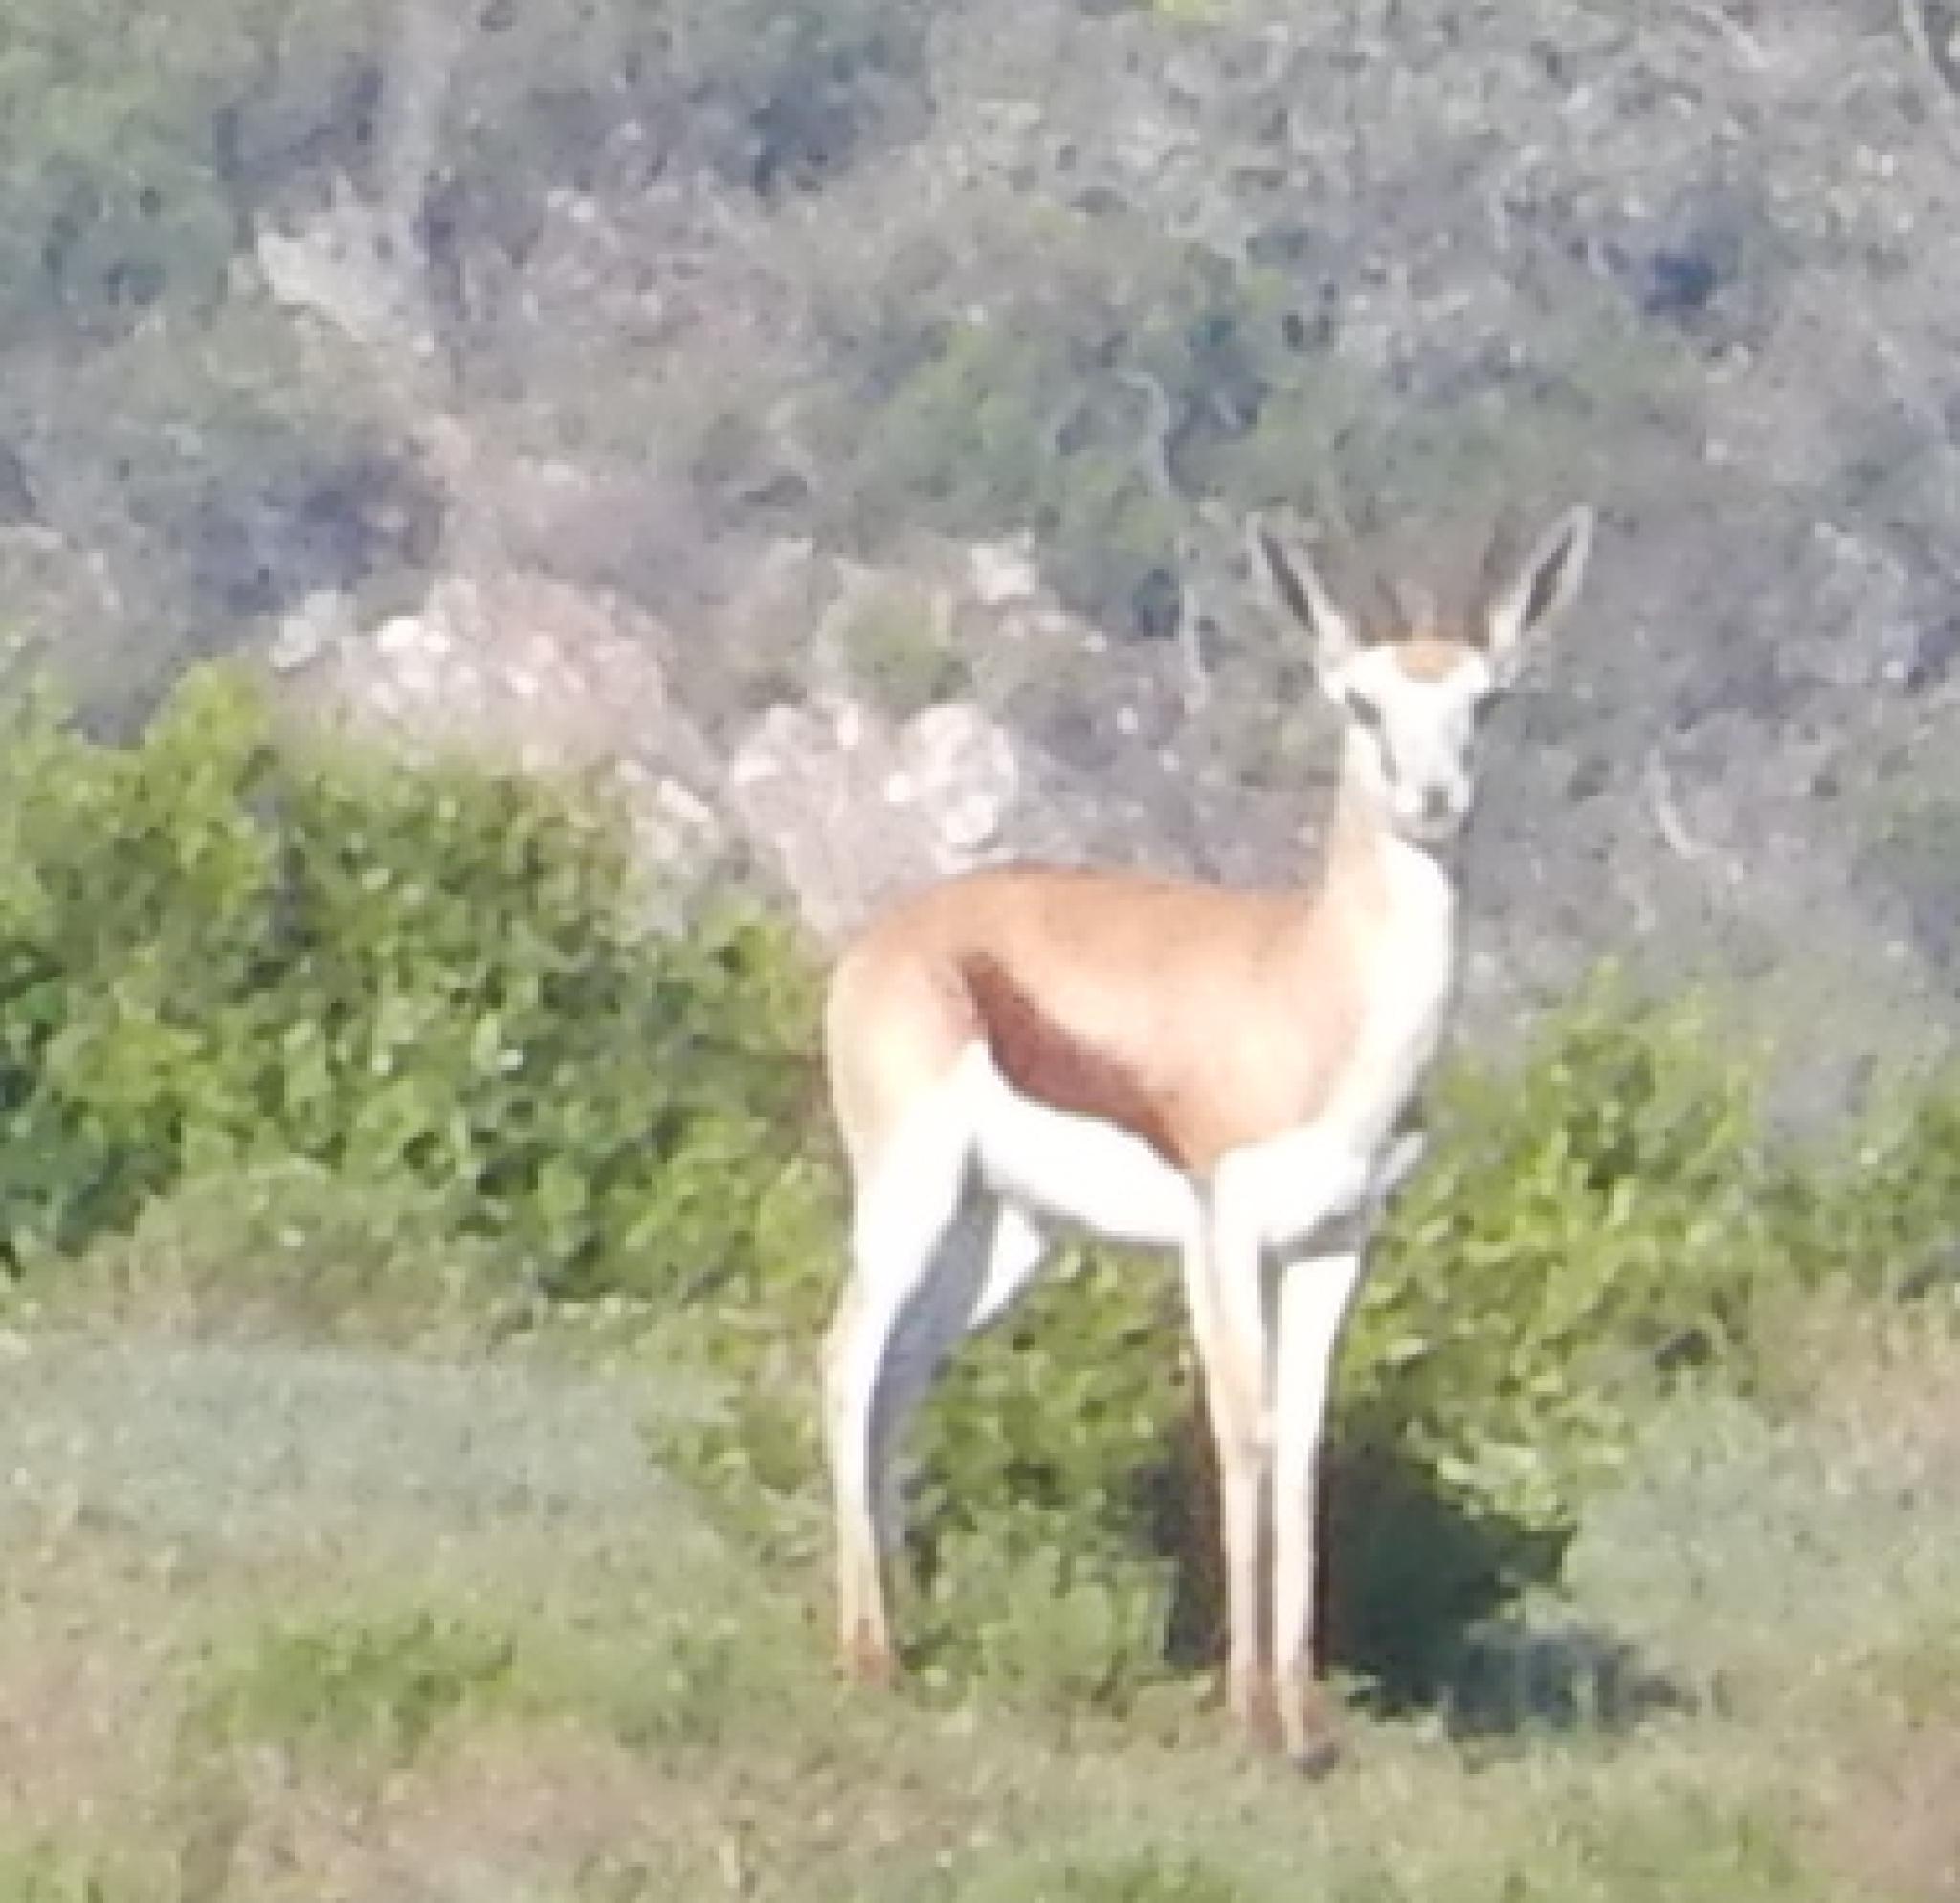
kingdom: Animalia
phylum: Chordata
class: Mammalia
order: Artiodactyla
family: Bovidae
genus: Antidorcas
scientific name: Antidorcas marsupialis
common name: Springbok
